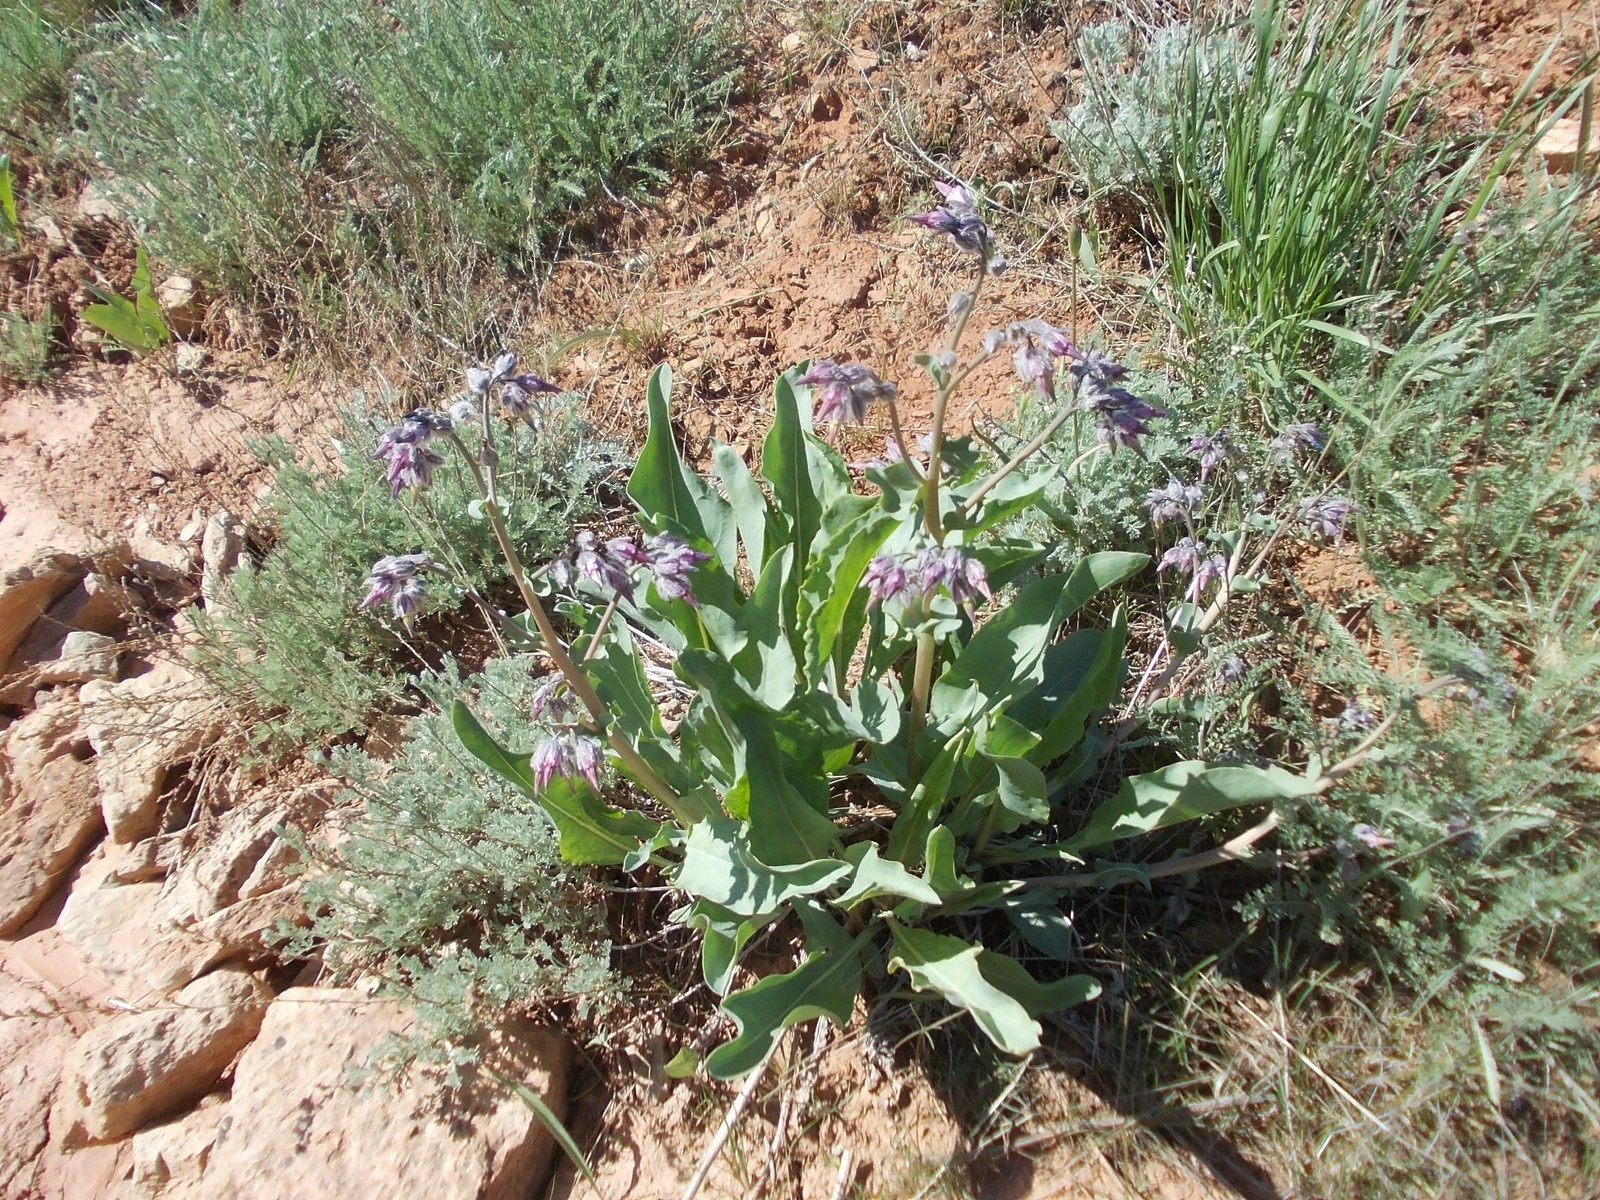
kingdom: Plantae
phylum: Tracheophyta
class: Magnoliopsida
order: Boraginales
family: Boraginaceae
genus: Rindera
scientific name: Rindera tetraspis
